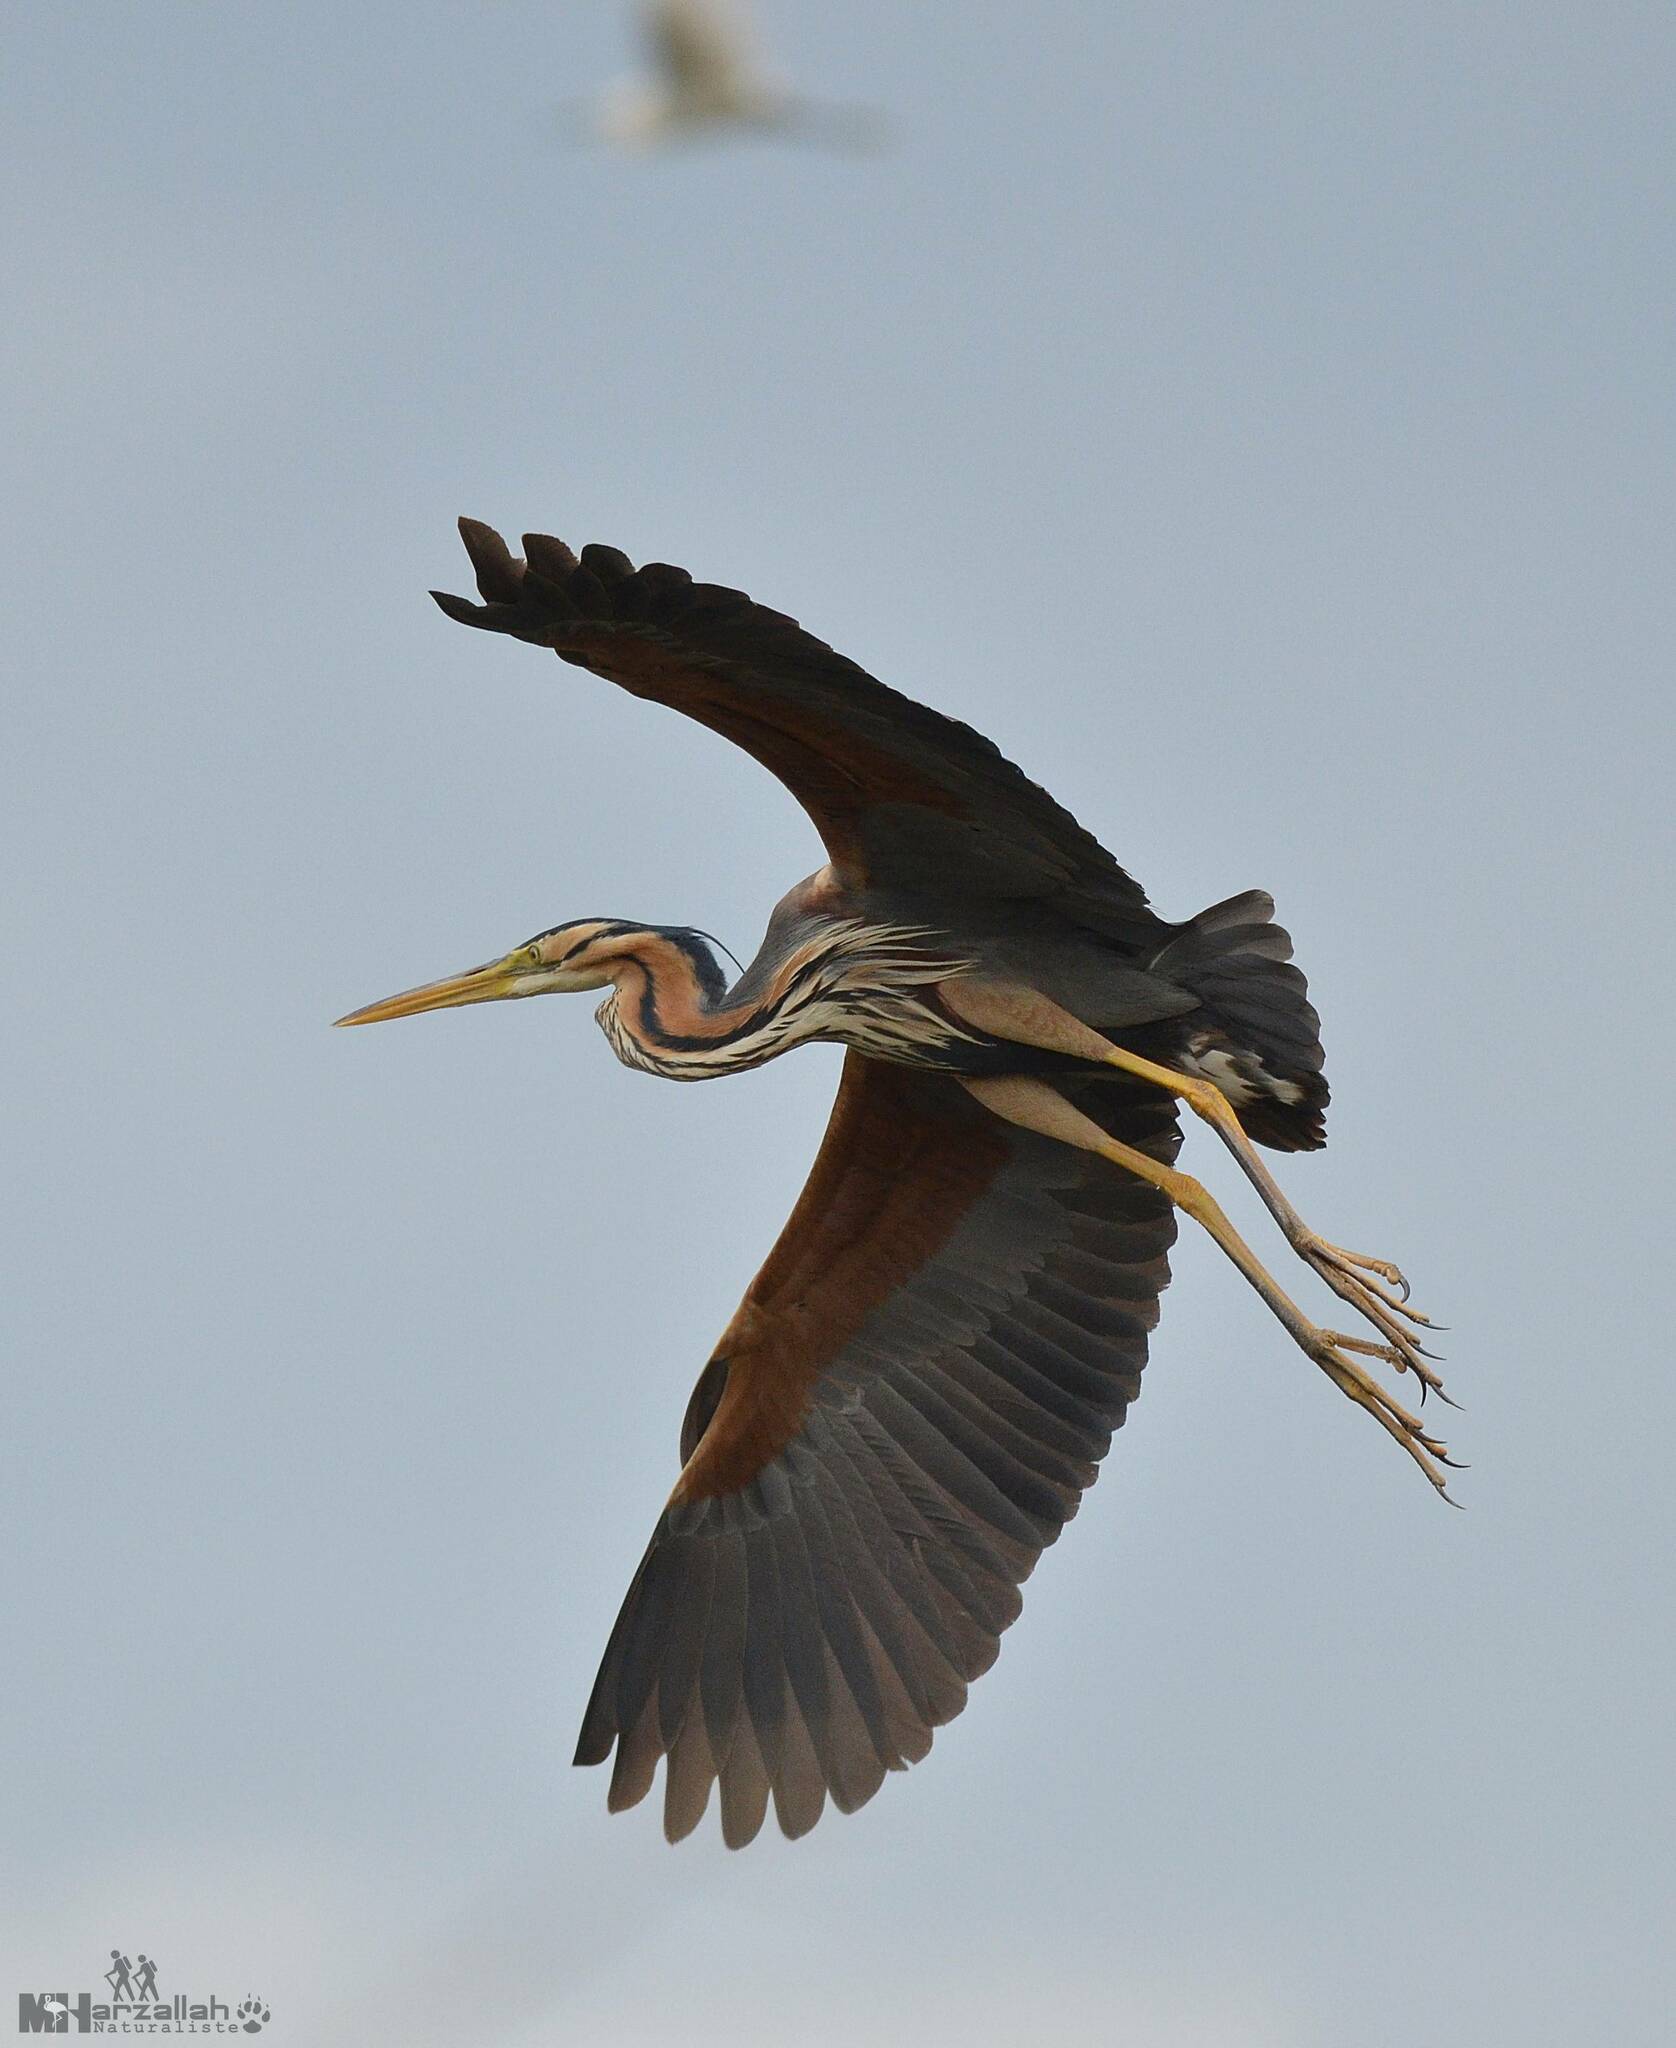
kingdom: Animalia
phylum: Chordata
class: Aves
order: Pelecaniformes
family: Ardeidae
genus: Ardea
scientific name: Ardea purpurea
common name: Purple heron
